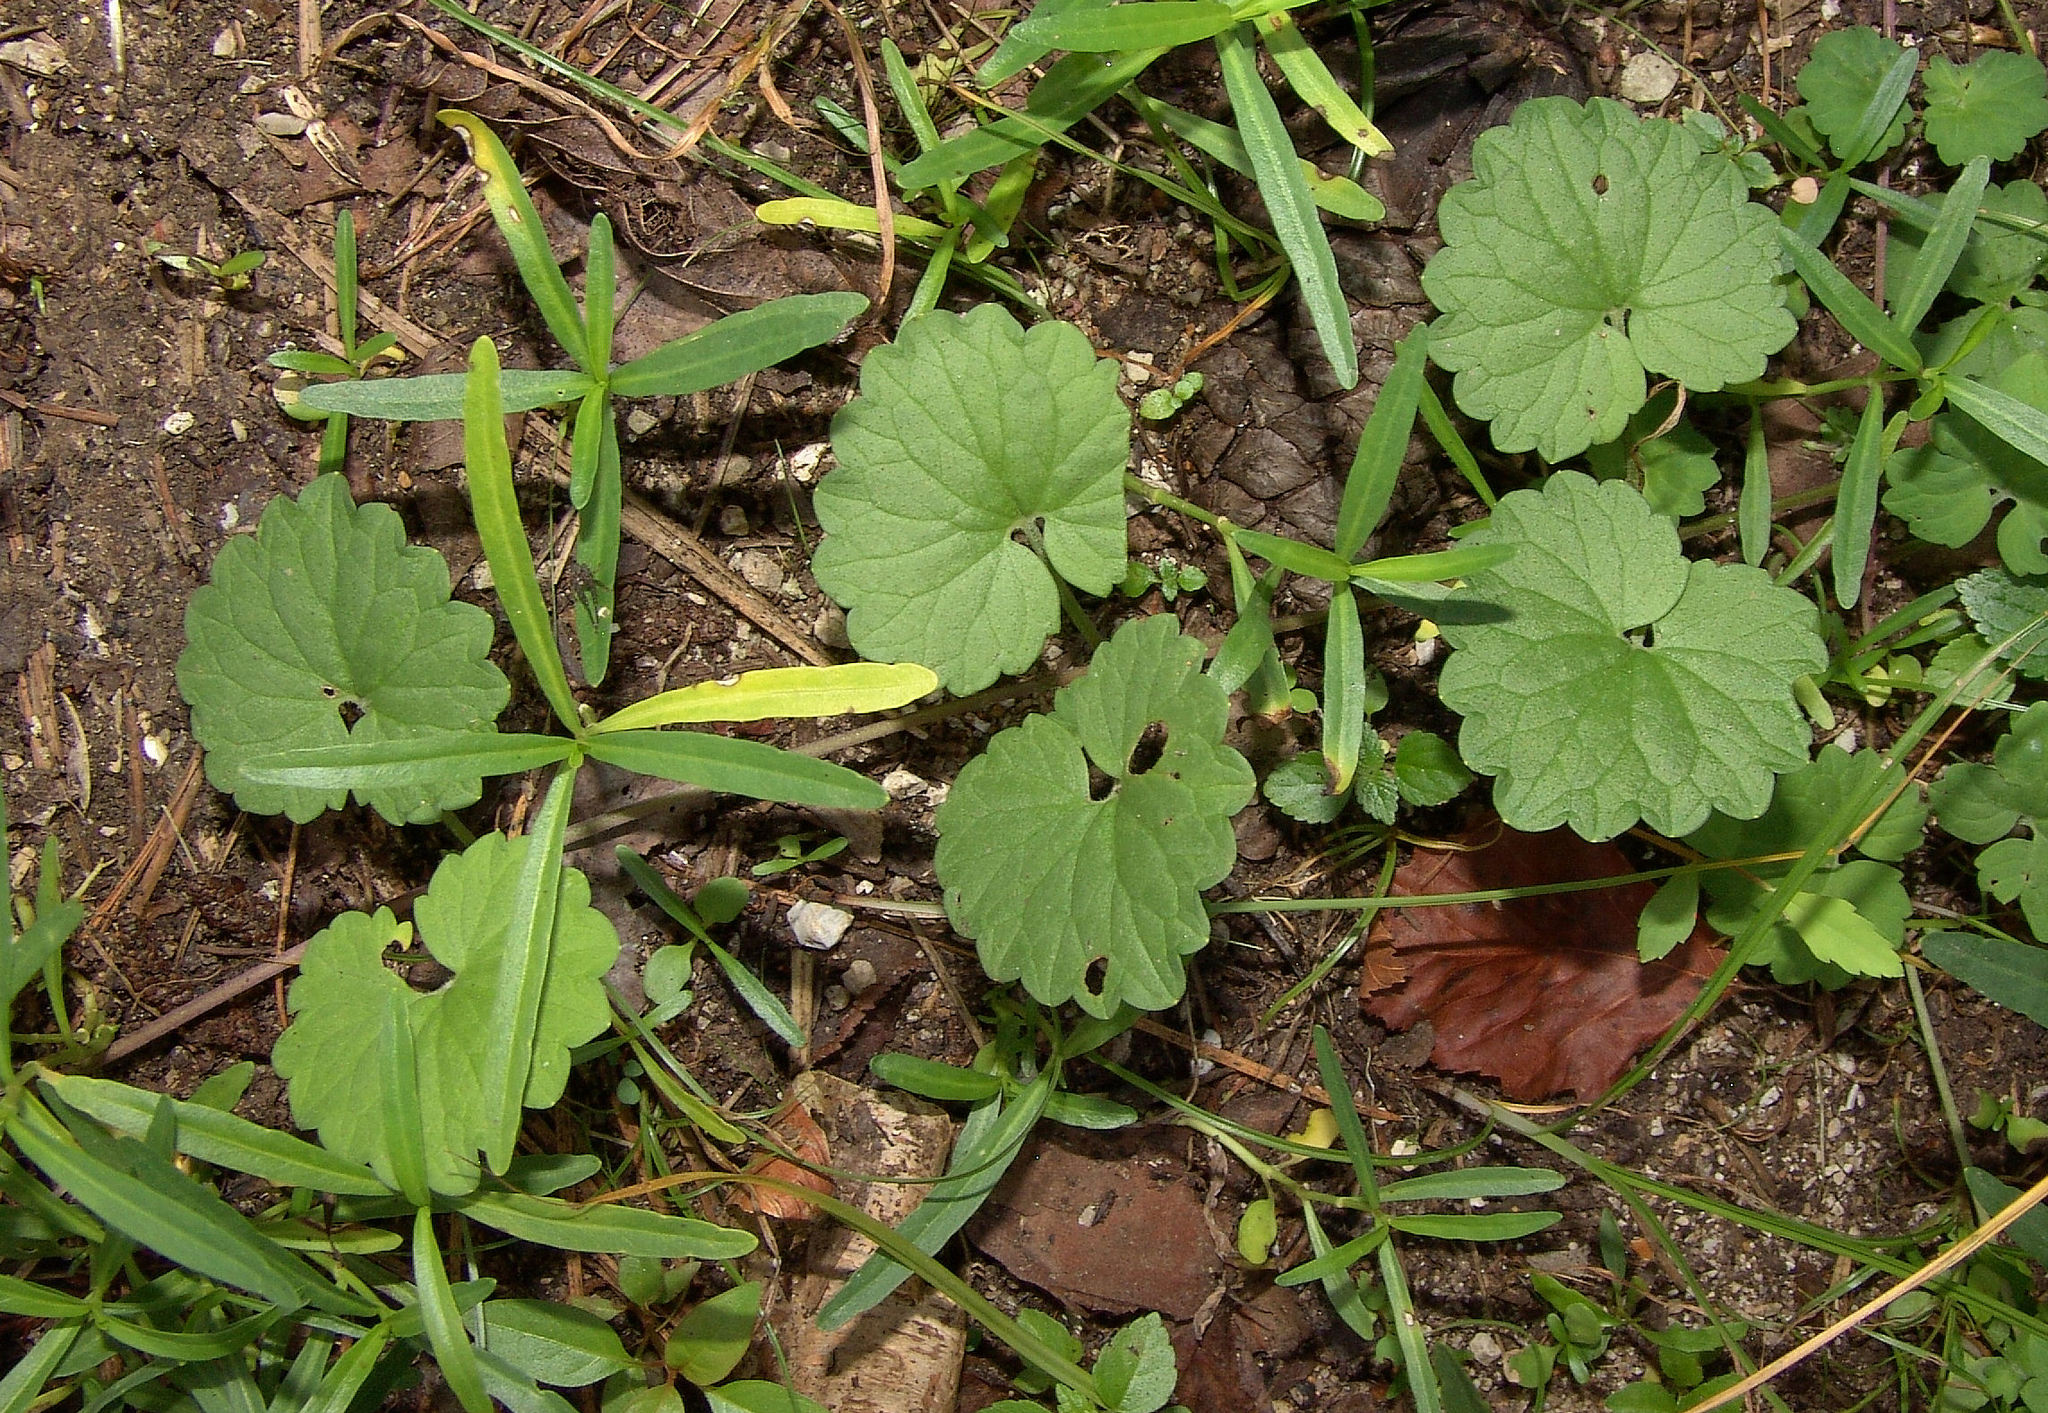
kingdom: Plantae
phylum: Tracheophyta
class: Magnoliopsida
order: Lamiales
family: Lamiaceae
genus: Glechoma
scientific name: Glechoma hederacea
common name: Ground ivy
